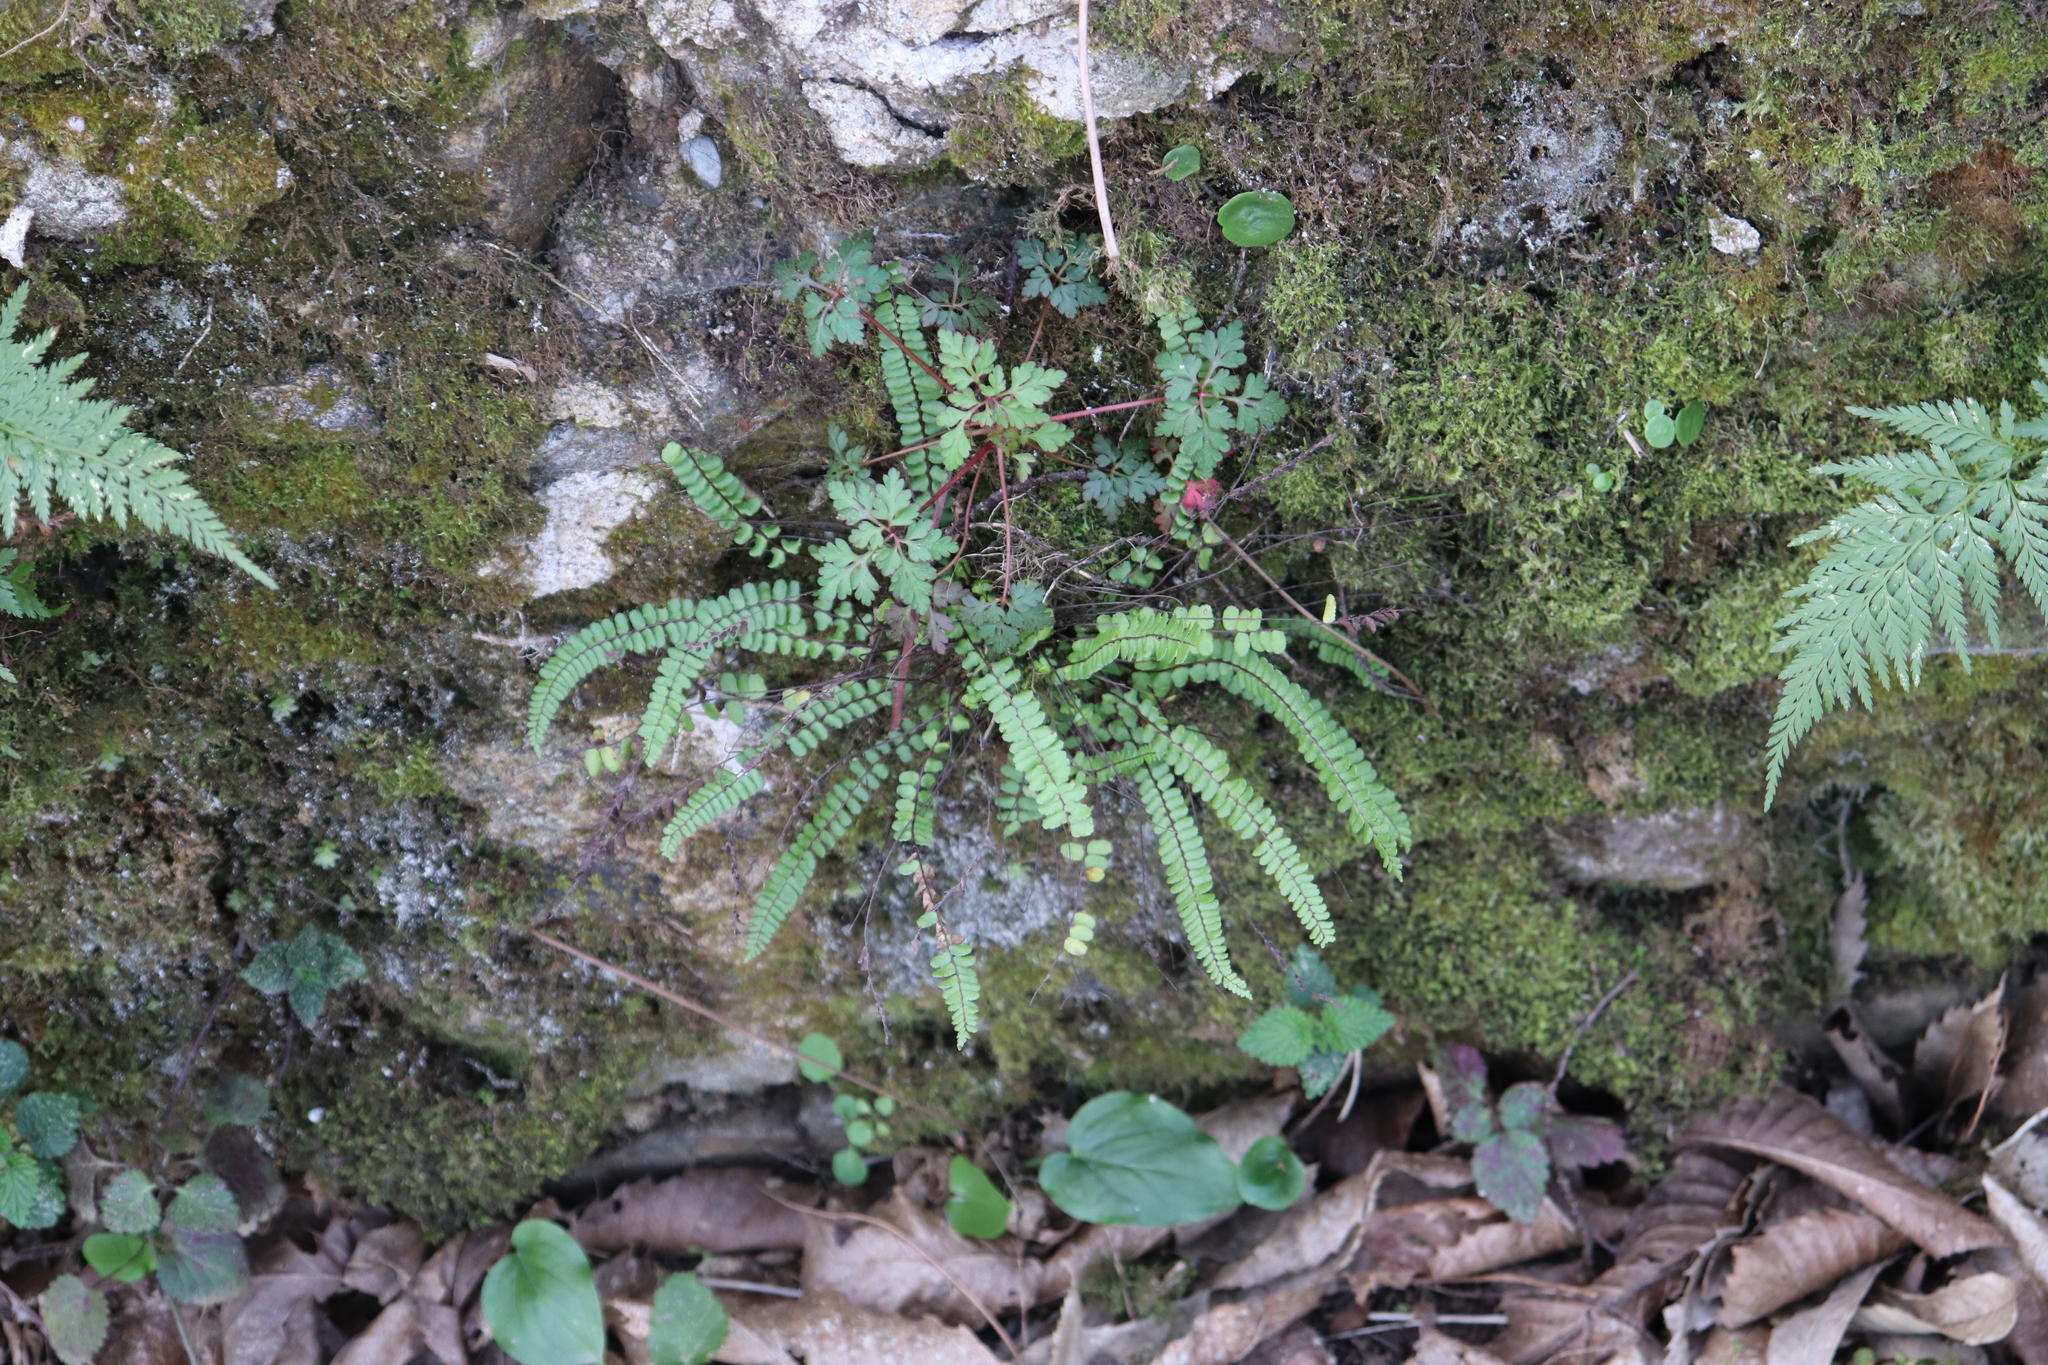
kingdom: Plantae
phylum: Tracheophyta
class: Polypodiopsida
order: Polypodiales
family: Aspleniaceae
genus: Asplenium
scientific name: Asplenium quadrivalens
